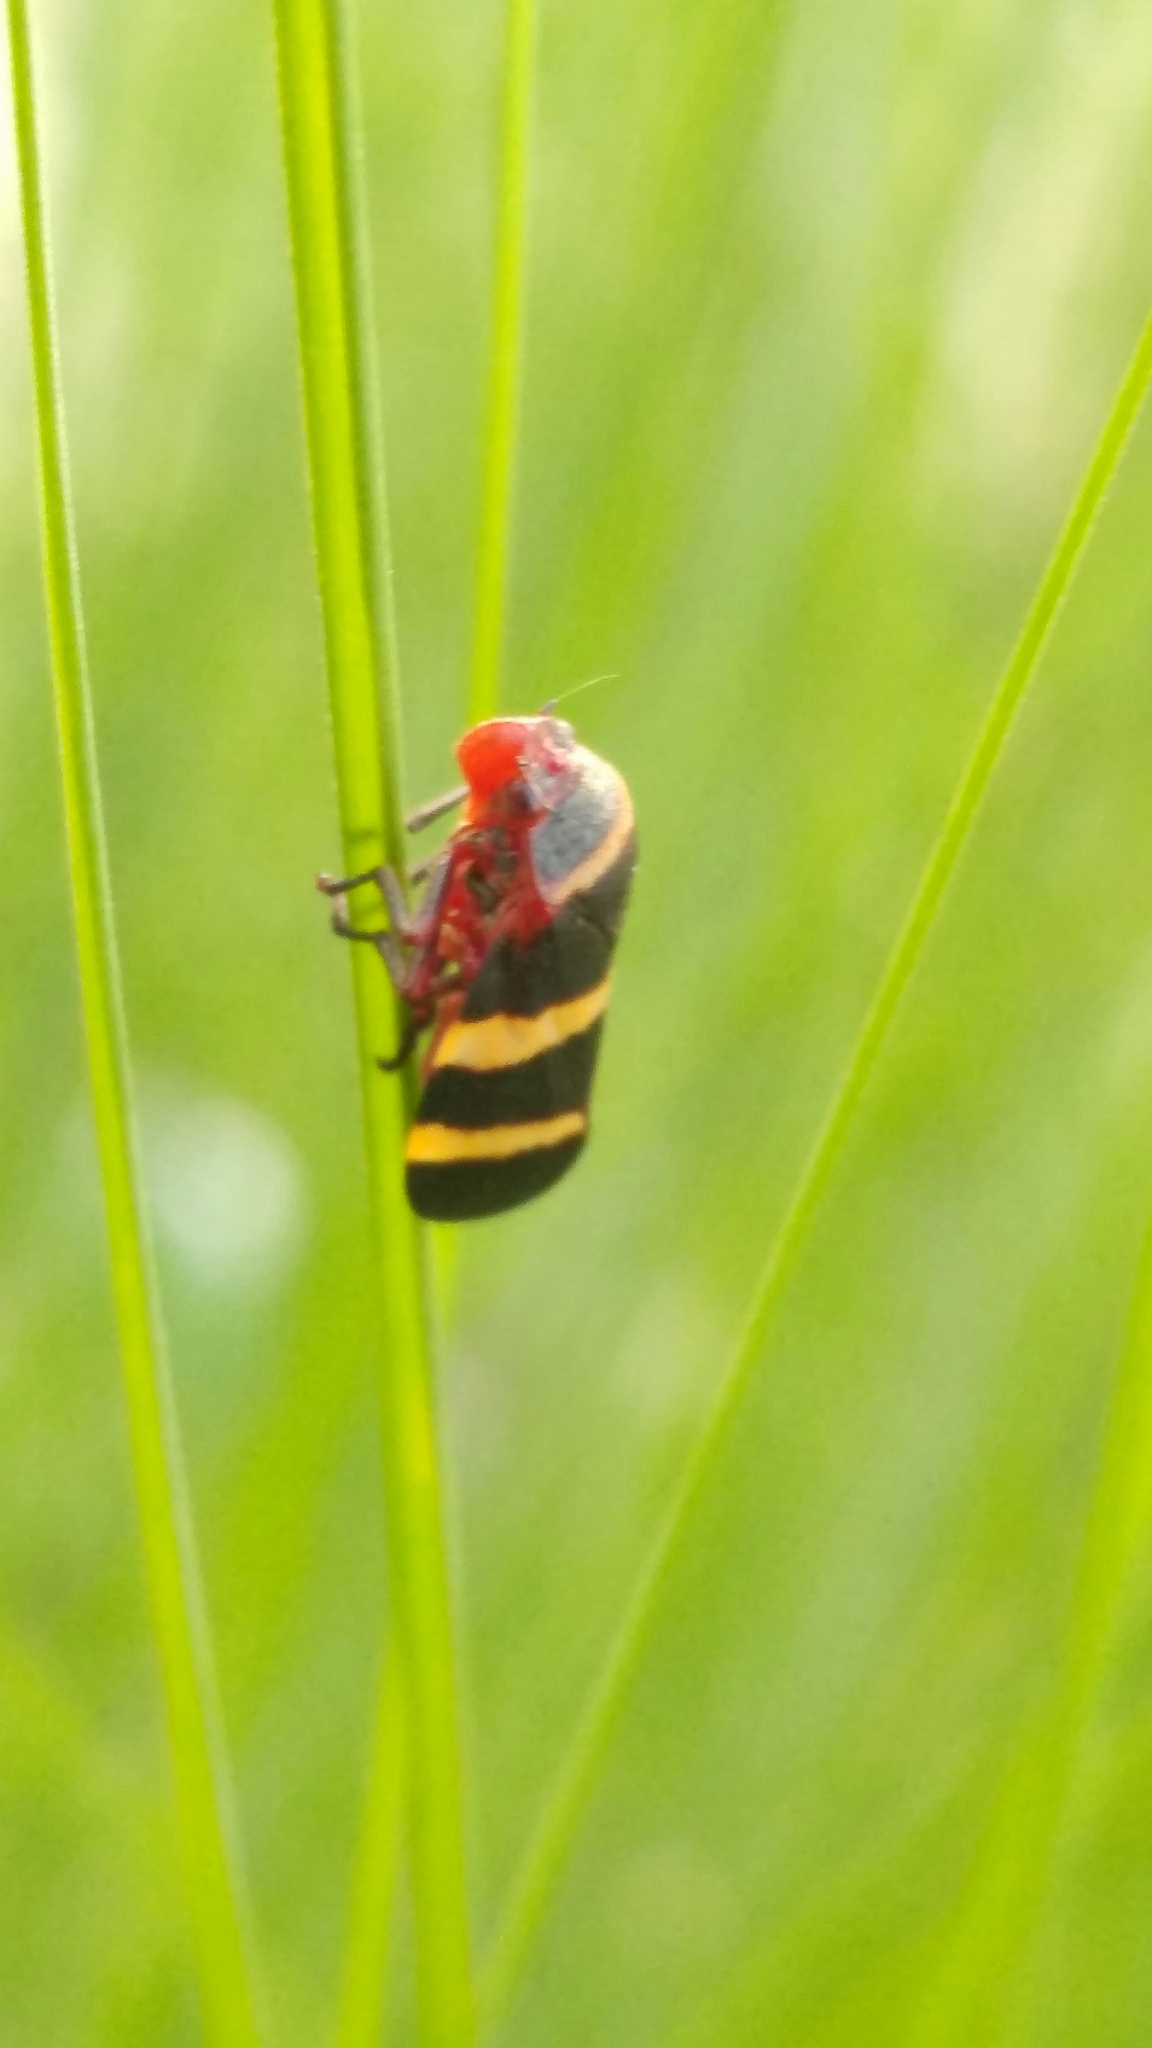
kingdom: Animalia
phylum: Arthropoda
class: Insecta
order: Hemiptera
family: Cercopidae
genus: Prosapia
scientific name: Prosapia simulans
